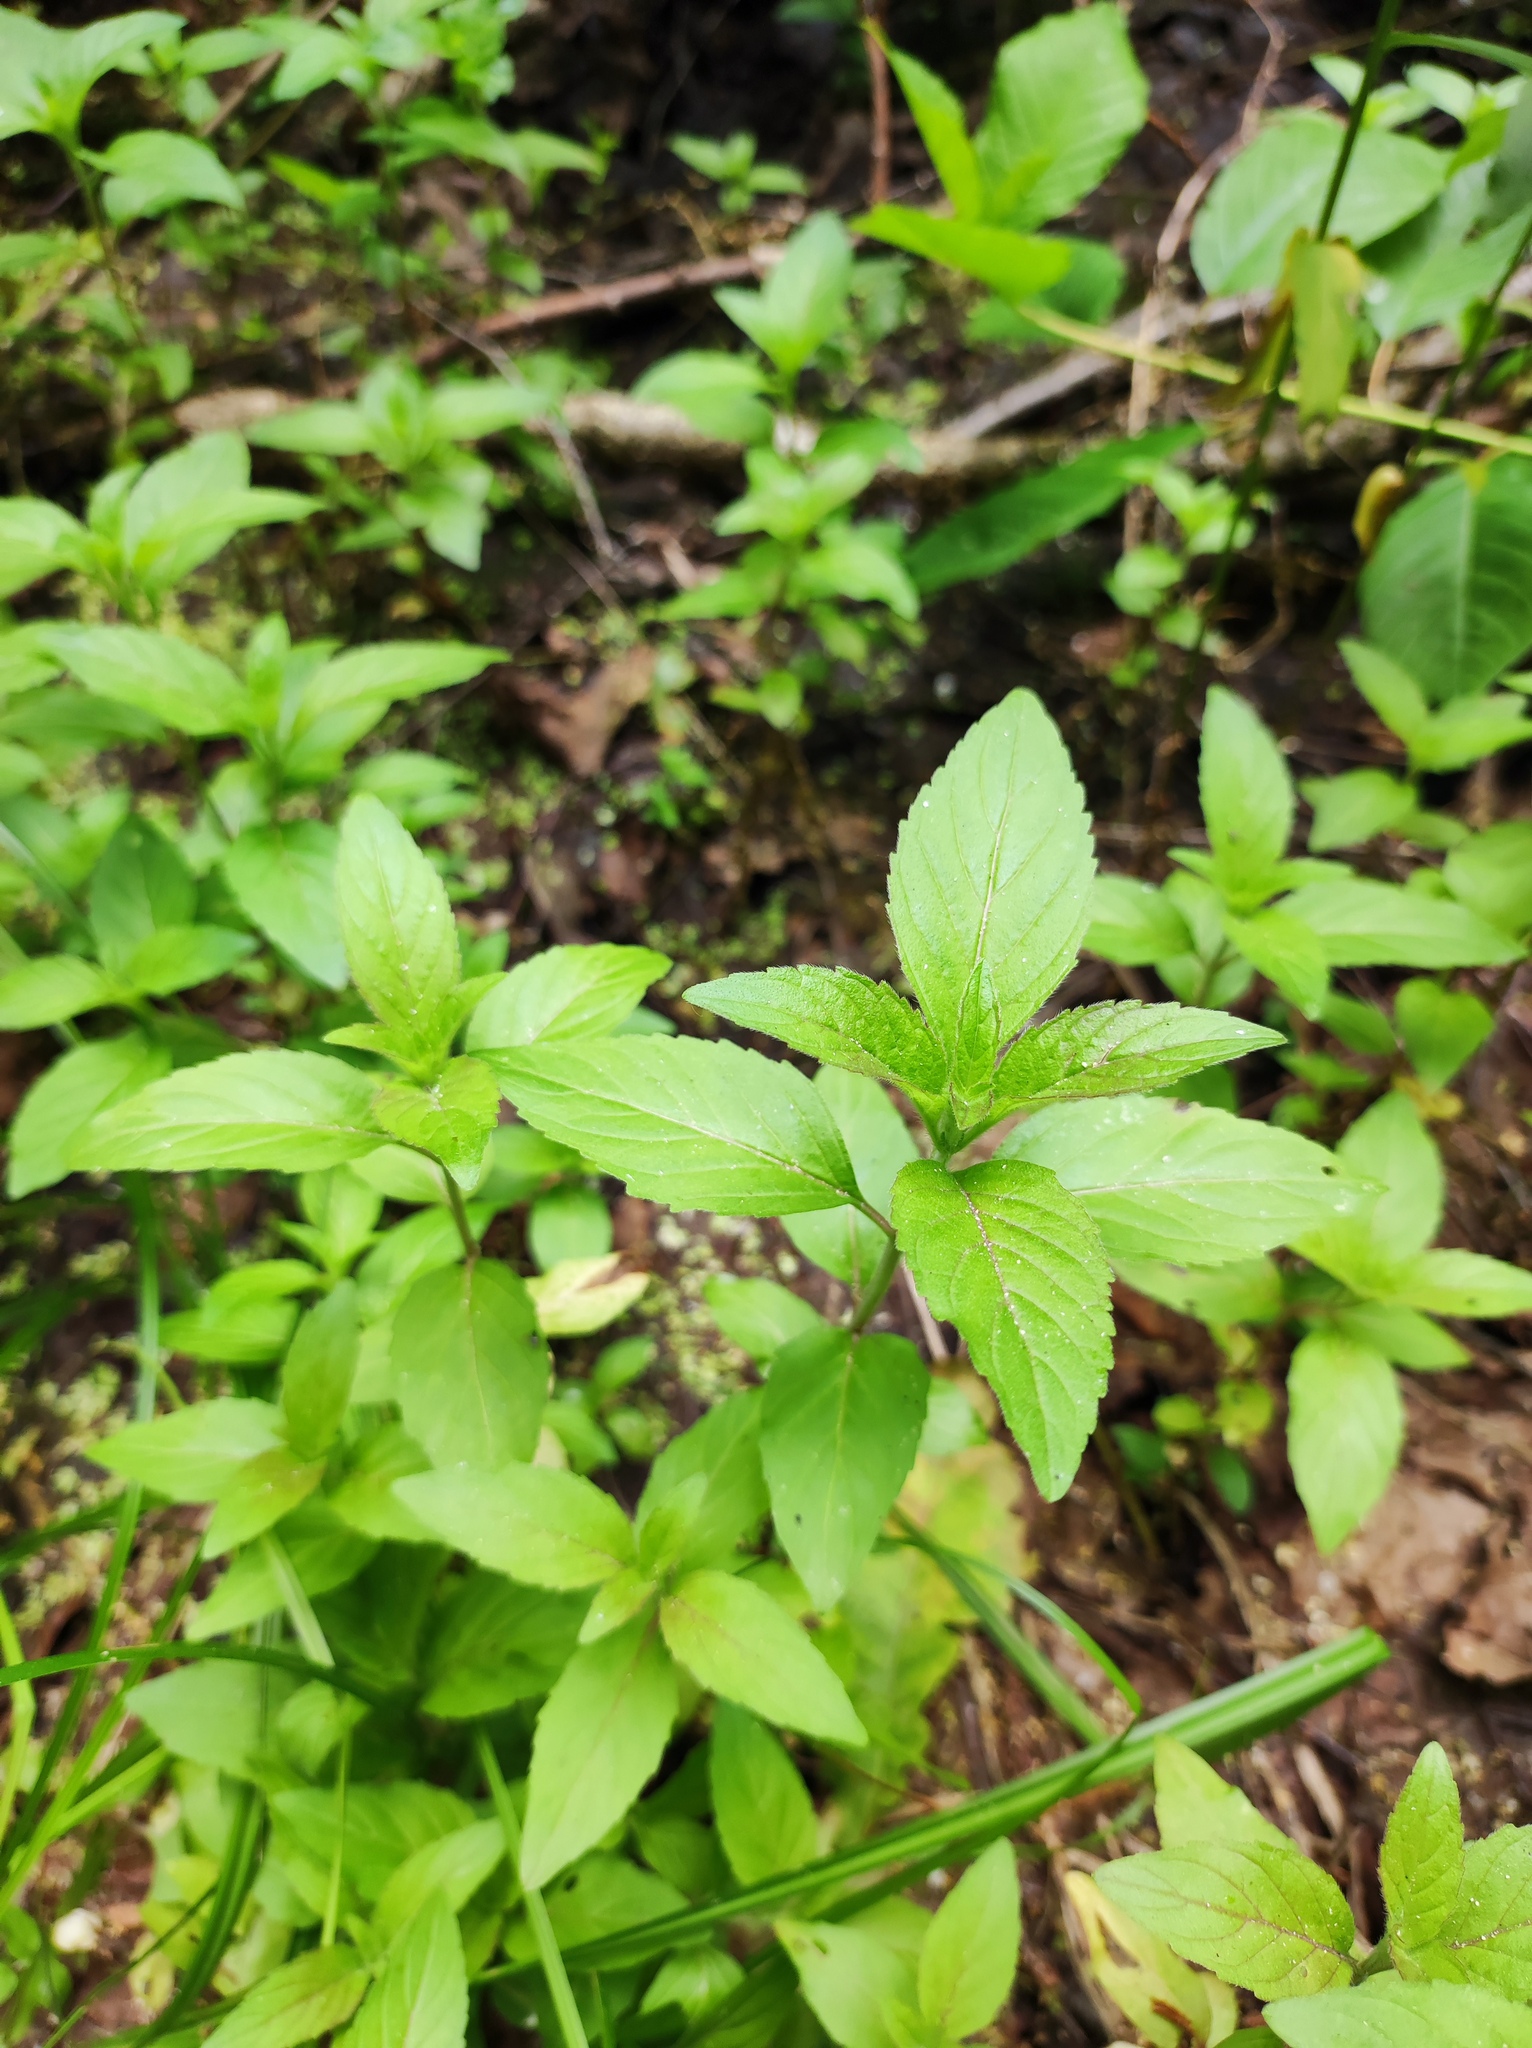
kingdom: Plantae
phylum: Tracheophyta
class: Magnoliopsida
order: Lamiales
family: Lamiaceae
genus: Mentha
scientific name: Mentha arvensis
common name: Corn mint
